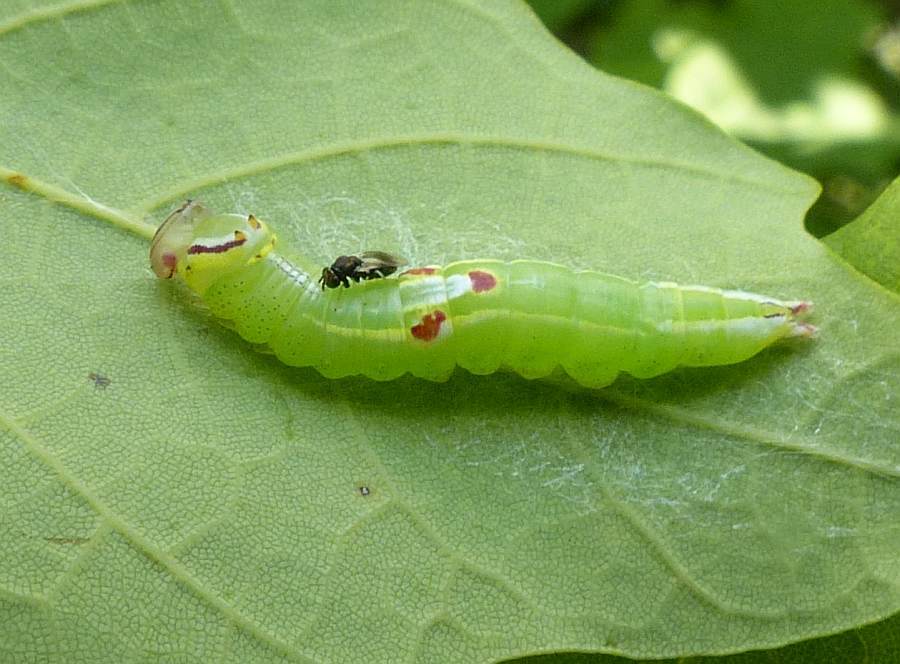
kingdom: Animalia
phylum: Arthropoda
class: Insecta
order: Lepidoptera
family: Notodontidae
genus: Disphragis
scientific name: Disphragis Cecrita guttivitta
